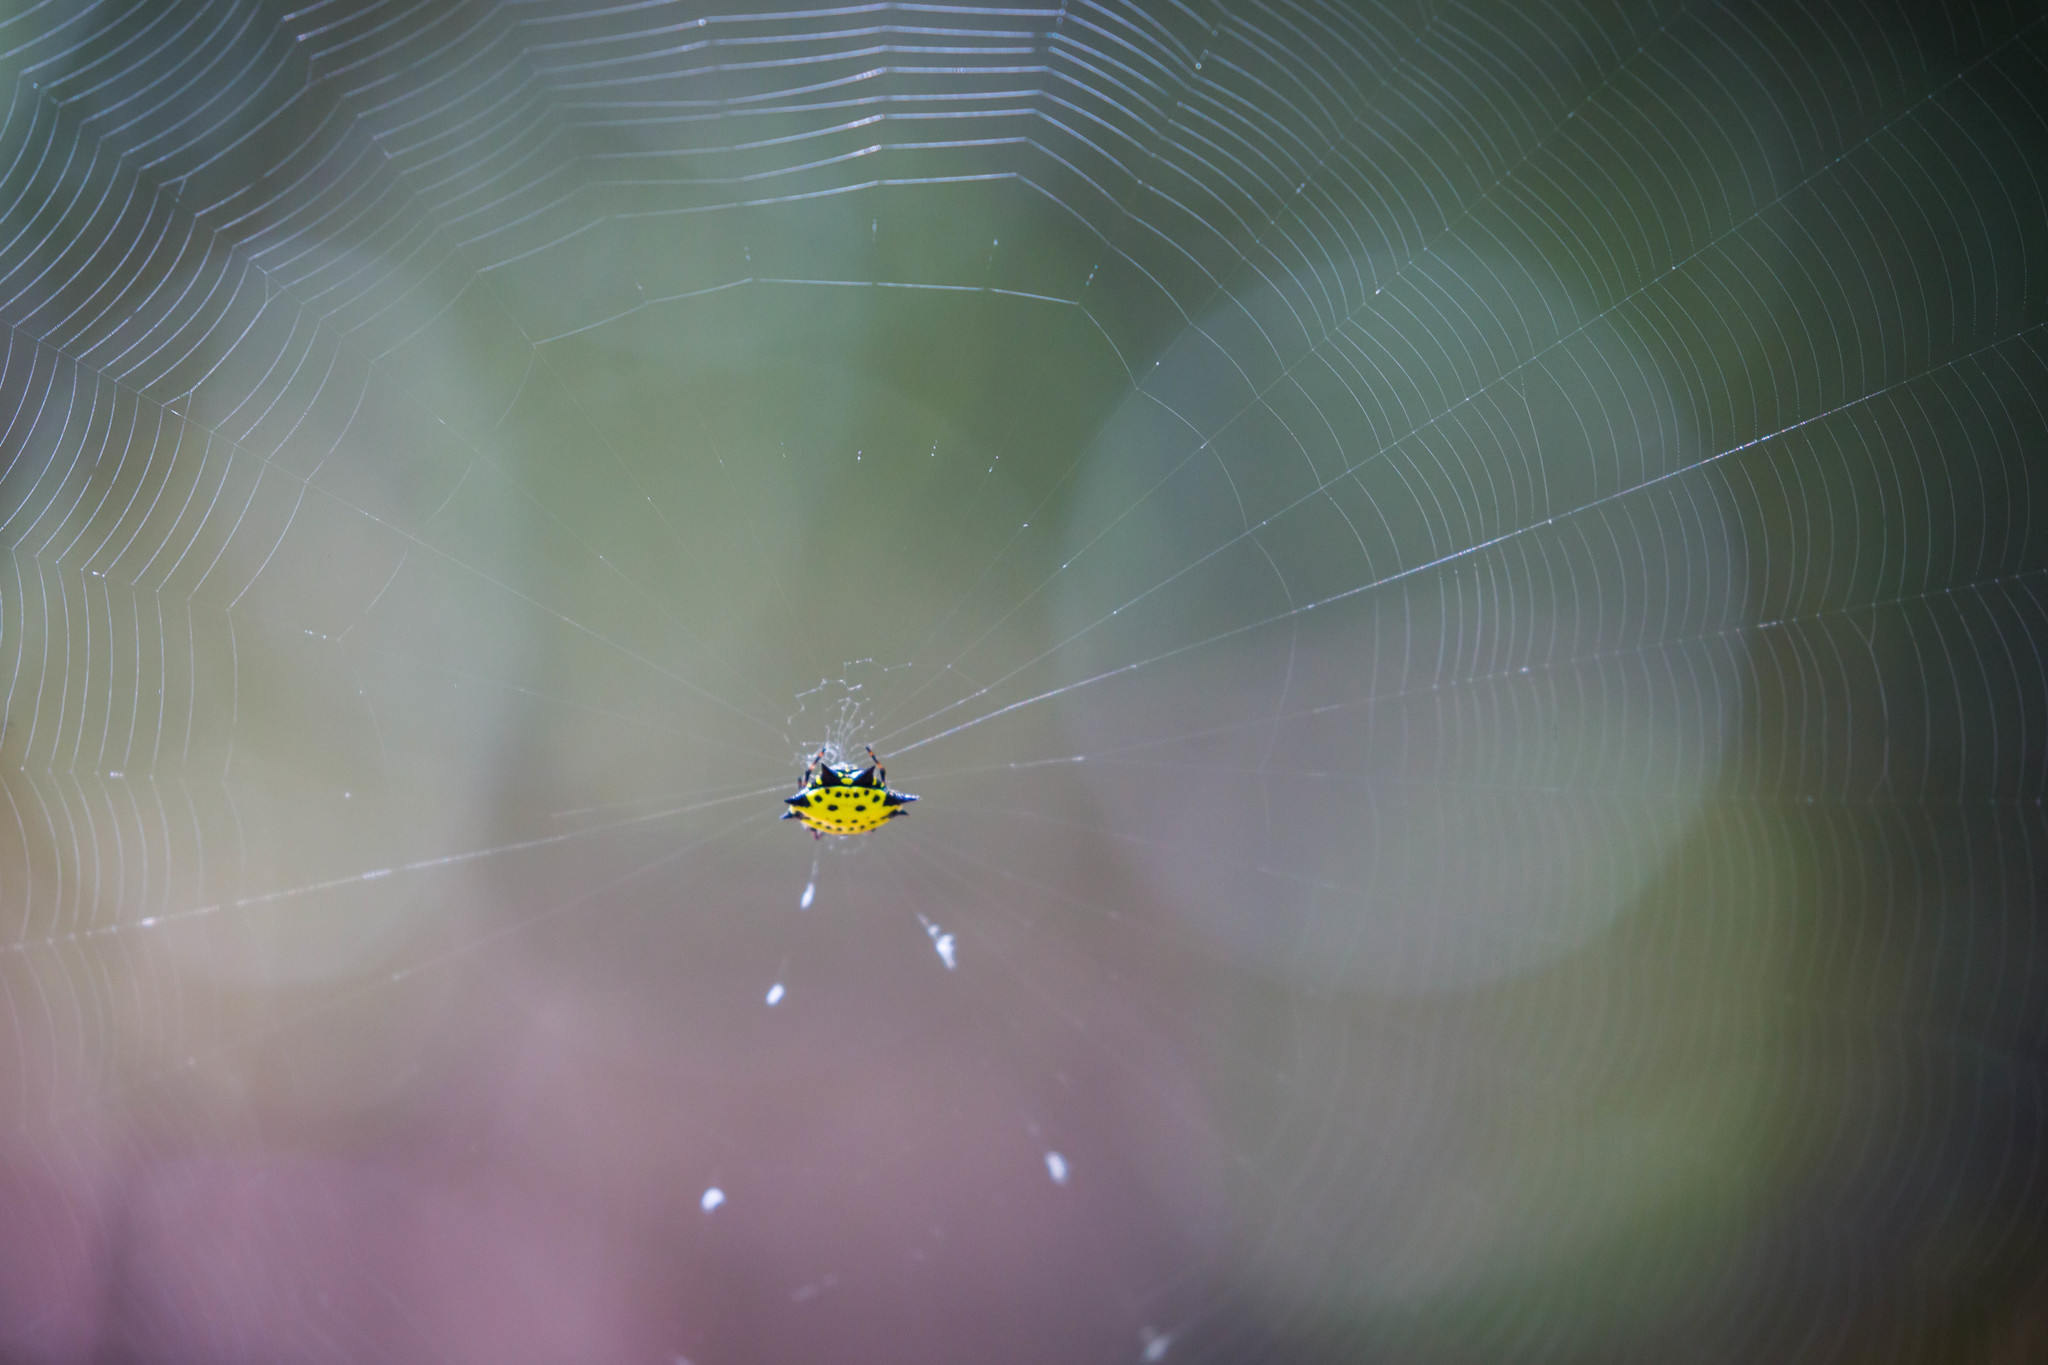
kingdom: Animalia
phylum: Arthropoda
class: Arachnida
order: Araneae
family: Araneidae
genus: Gasteracantha
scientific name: Gasteracantha cancriformis
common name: Orb weavers
